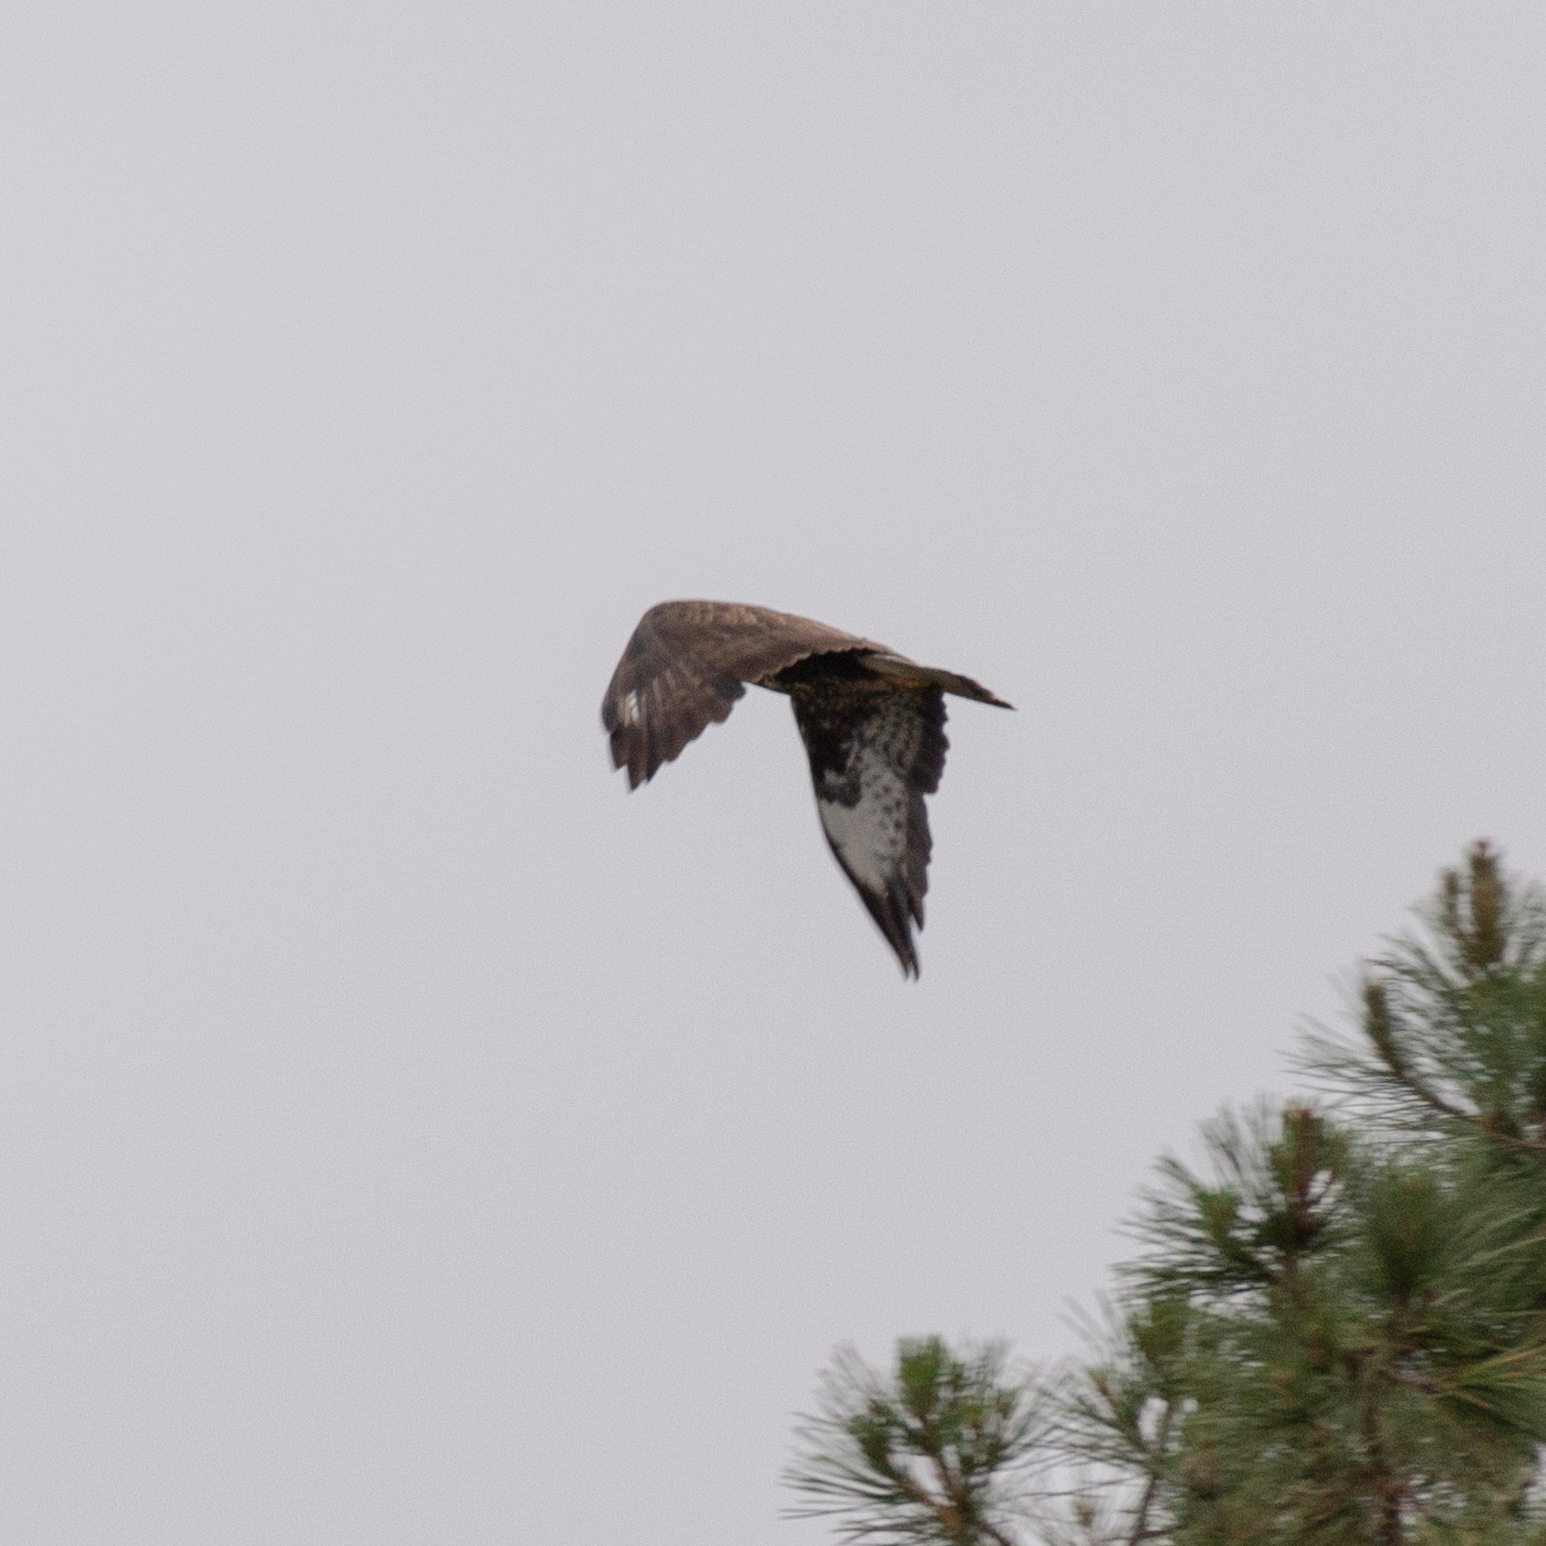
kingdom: Animalia
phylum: Chordata
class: Aves
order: Accipitriformes
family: Accipitridae
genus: Buteo
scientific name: Buteo buteo
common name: Common buzzard
